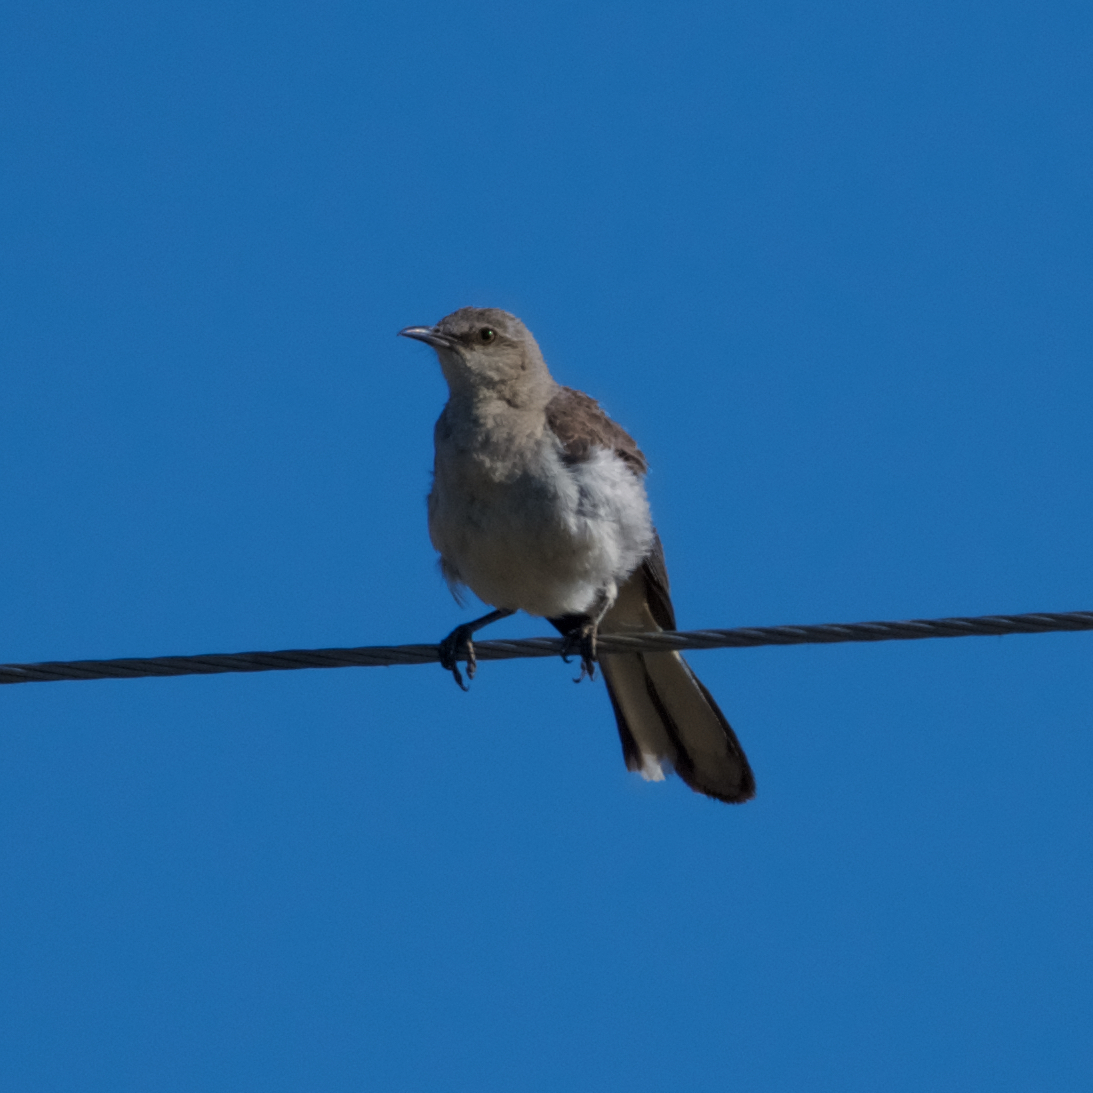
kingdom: Animalia
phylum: Chordata
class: Aves
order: Passeriformes
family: Mimidae
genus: Mimus
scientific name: Mimus polyglottos
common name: Northern mockingbird
